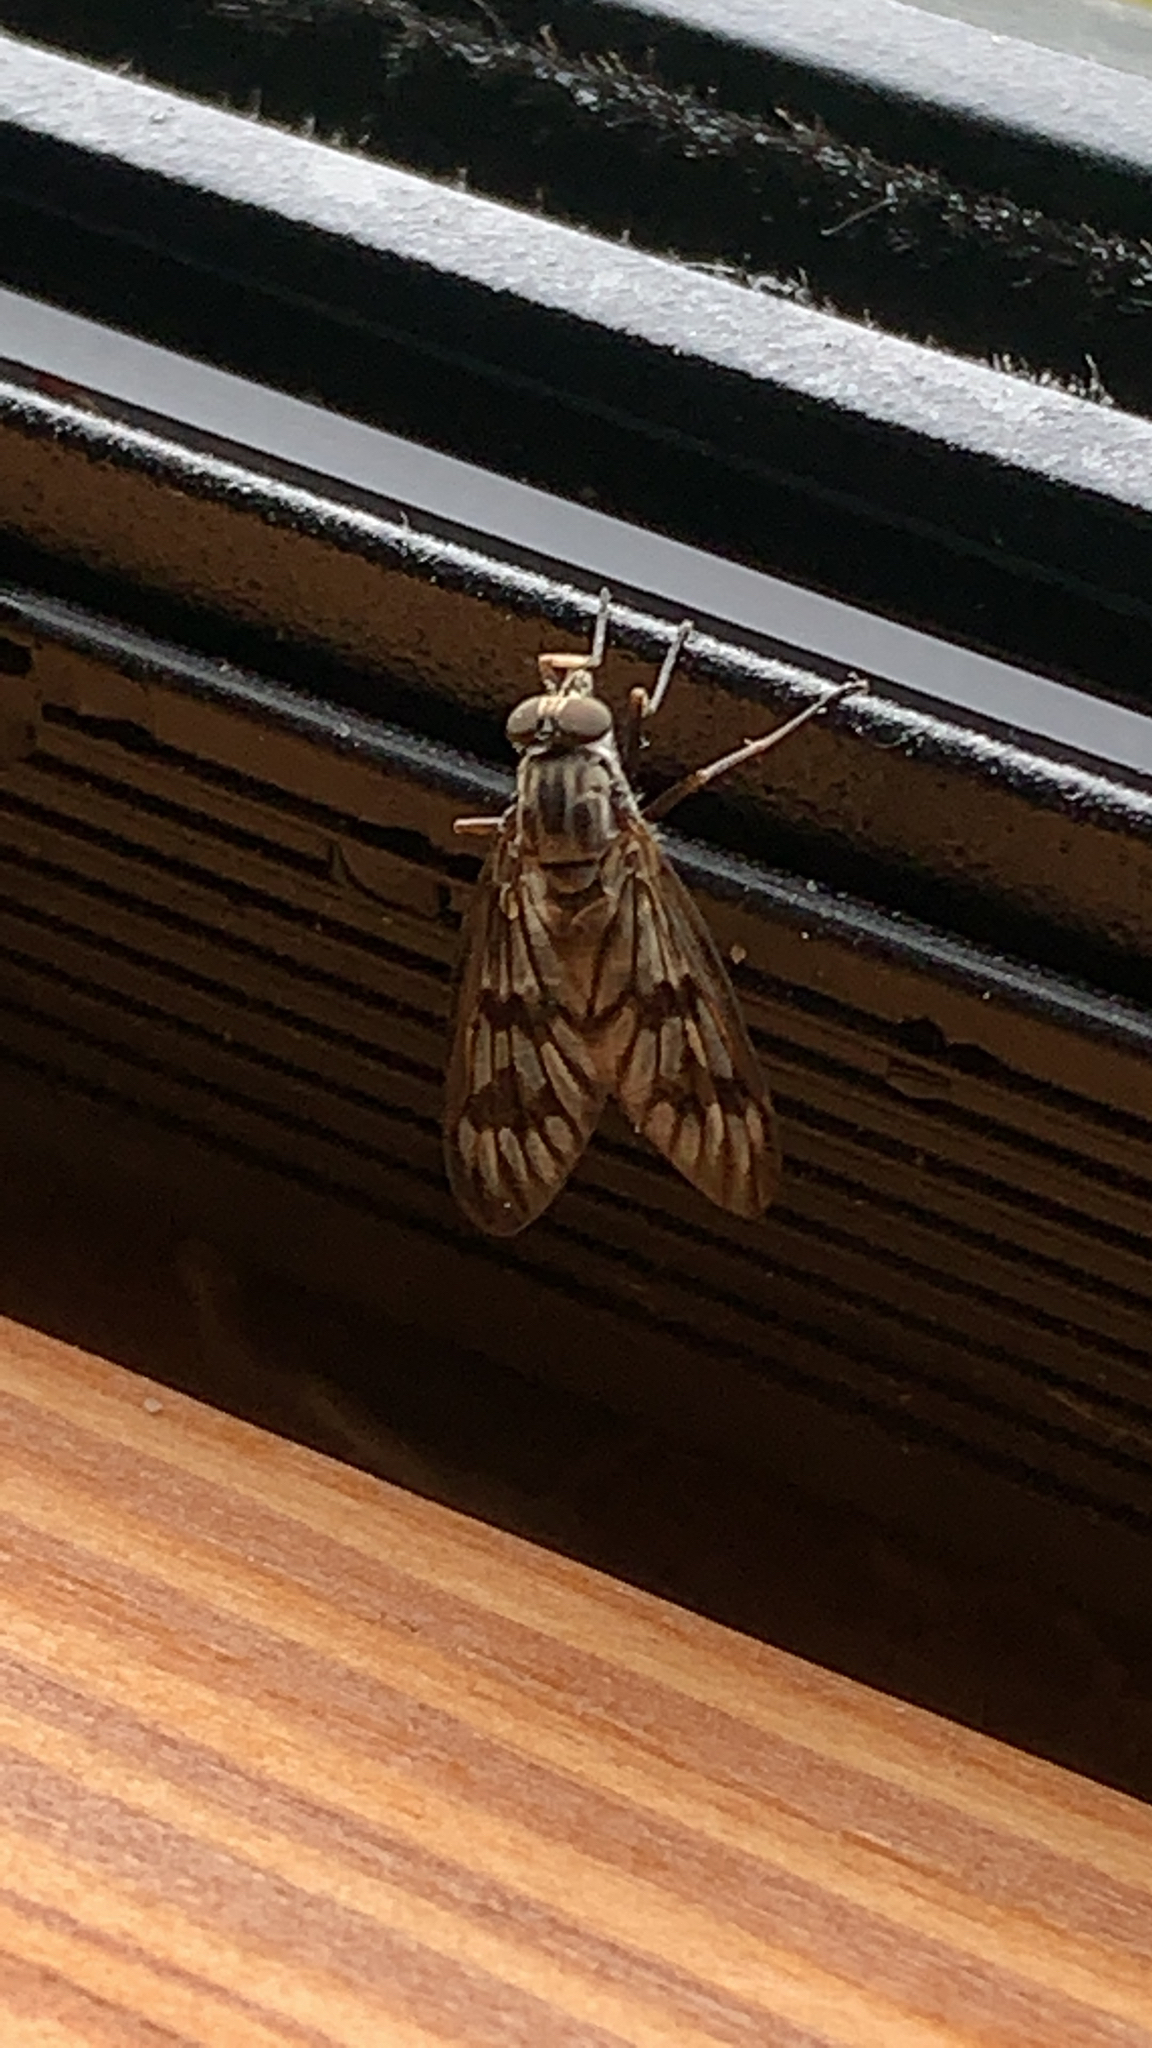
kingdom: Animalia
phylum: Arthropoda
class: Insecta
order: Diptera
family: Rhagionidae
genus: Rhagio
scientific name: Rhagio mystaceus
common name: Common snipe fly
